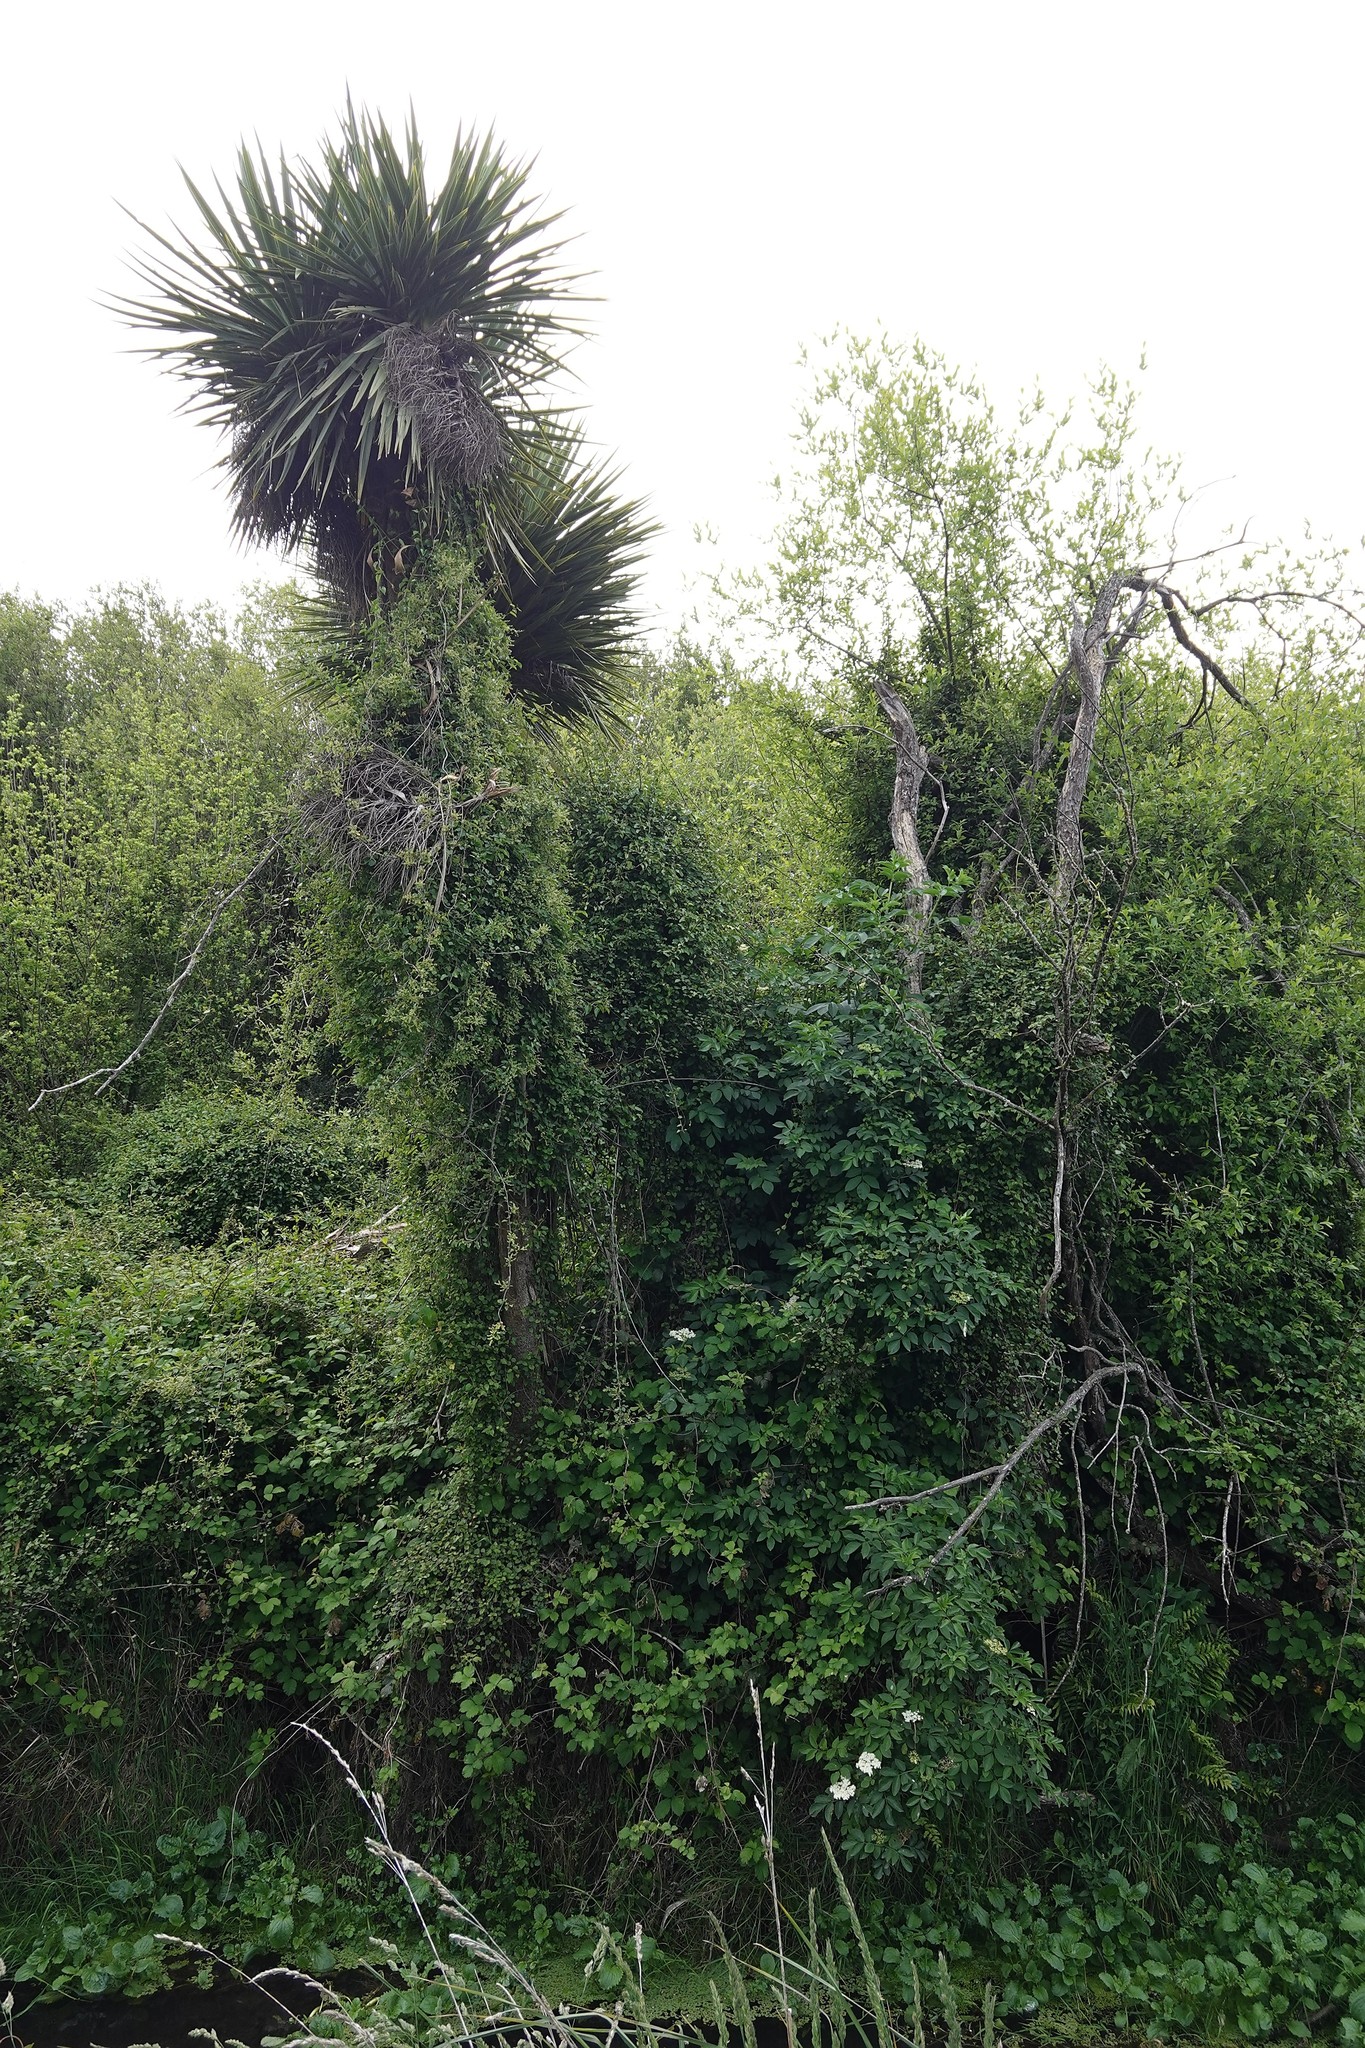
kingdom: Plantae
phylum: Tracheophyta
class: Magnoliopsida
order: Caryophyllales
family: Polygonaceae
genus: Muehlenbeckia
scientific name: Muehlenbeckia australis
